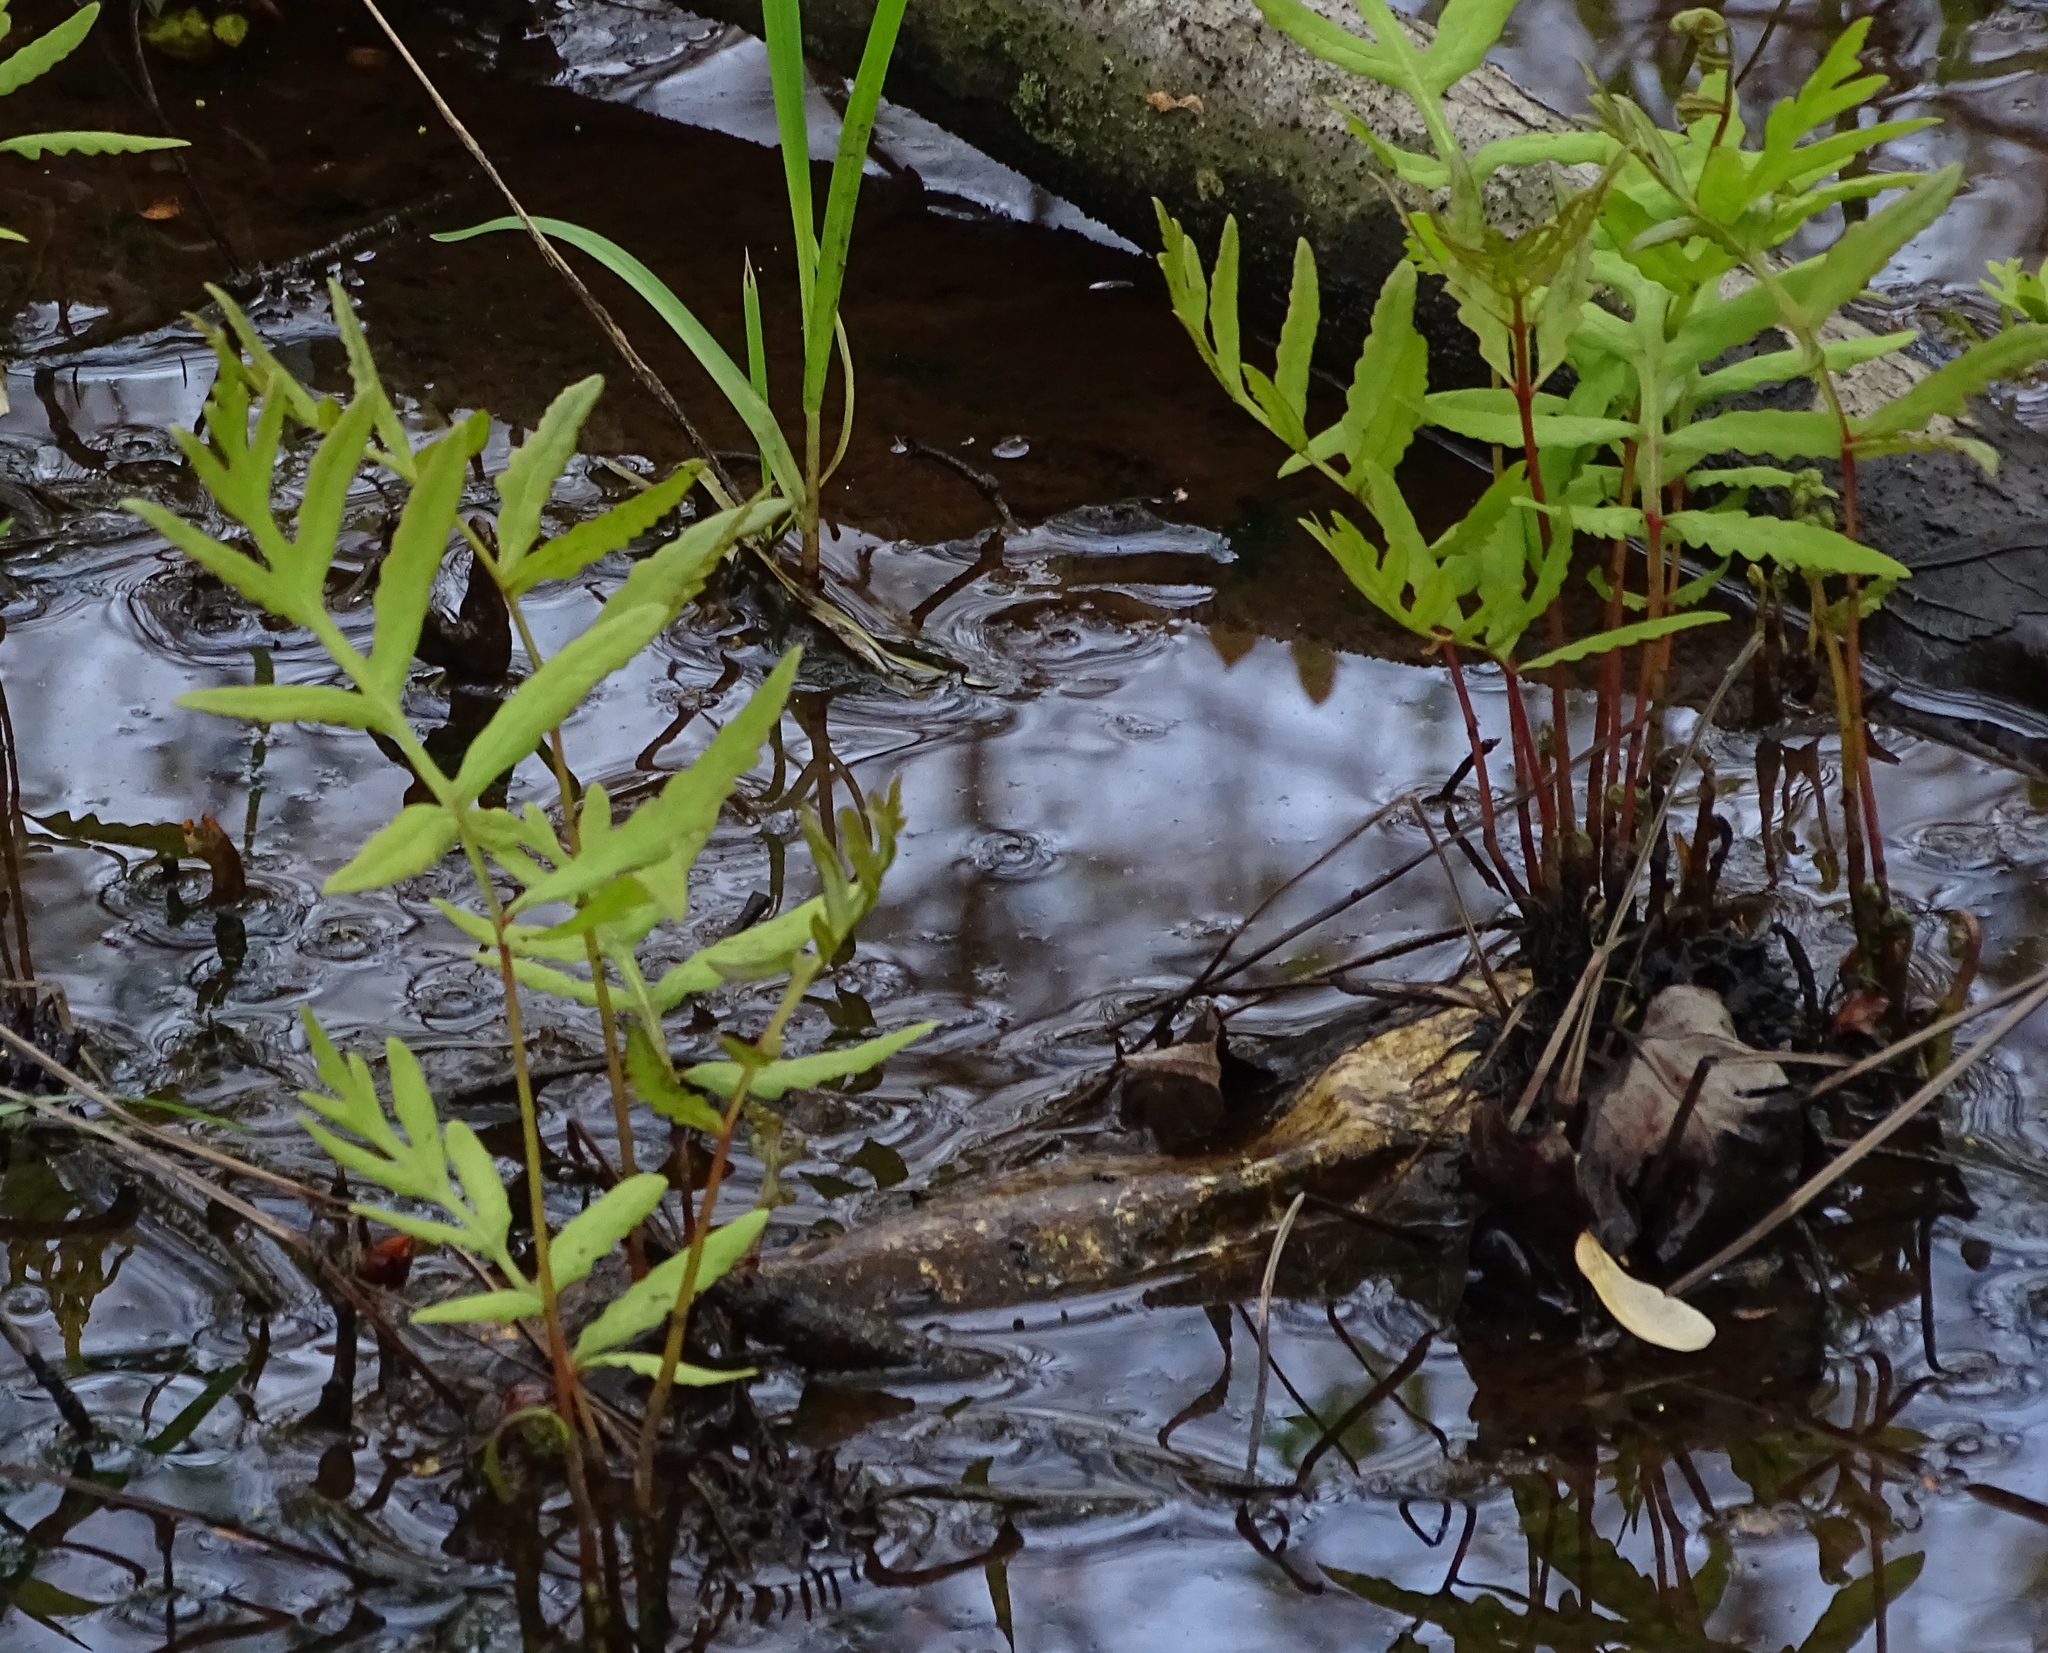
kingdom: Plantae
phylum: Tracheophyta
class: Polypodiopsida
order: Polypodiales
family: Onocleaceae
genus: Onoclea
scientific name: Onoclea sensibilis
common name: Sensitive fern
